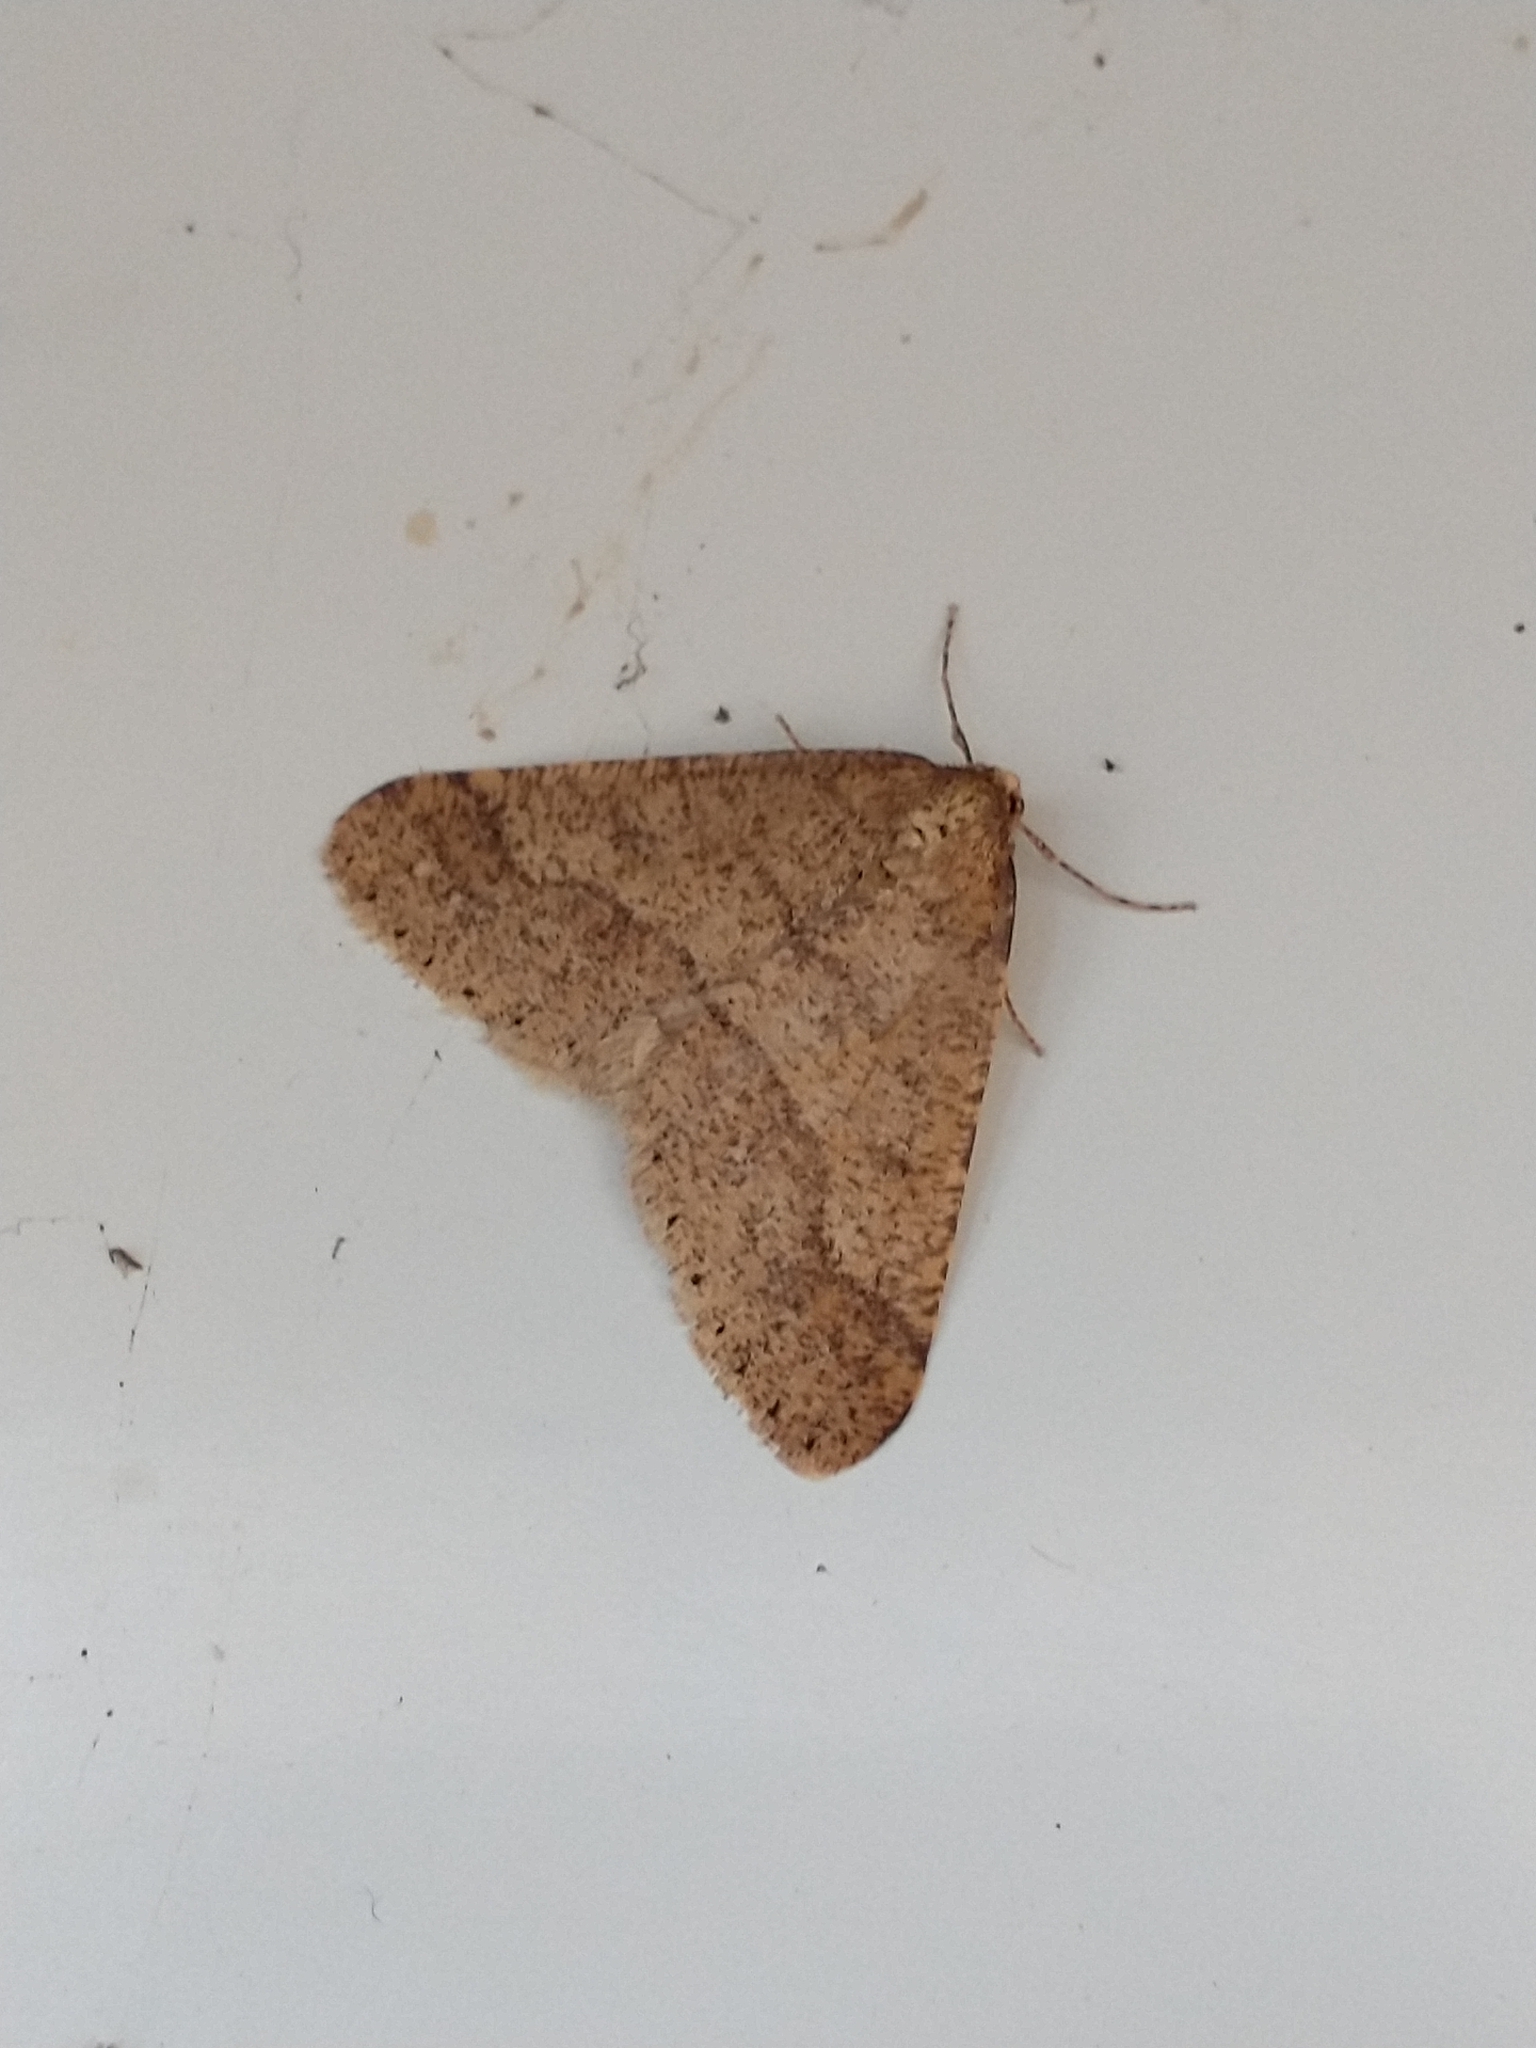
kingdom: Animalia
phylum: Arthropoda
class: Insecta
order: Lepidoptera
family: Geometridae
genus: Agriopis
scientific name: Agriopis marginaria
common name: Dotted border
